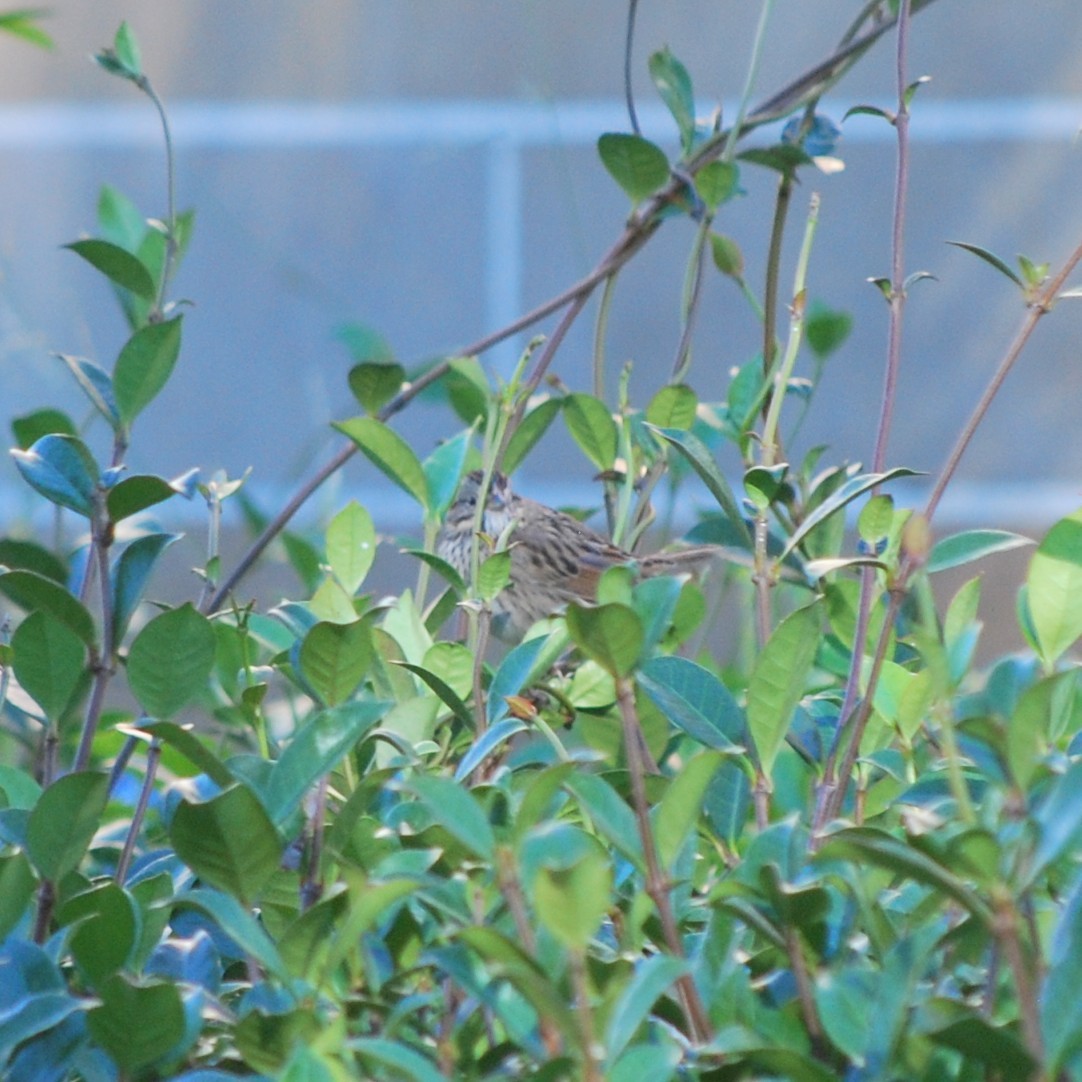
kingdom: Animalia
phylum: Chordata
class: Aves
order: Passeriformes
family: Passerellidae
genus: Melospiza
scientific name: Melospiza lincolnii
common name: Lincoln's sparrow
